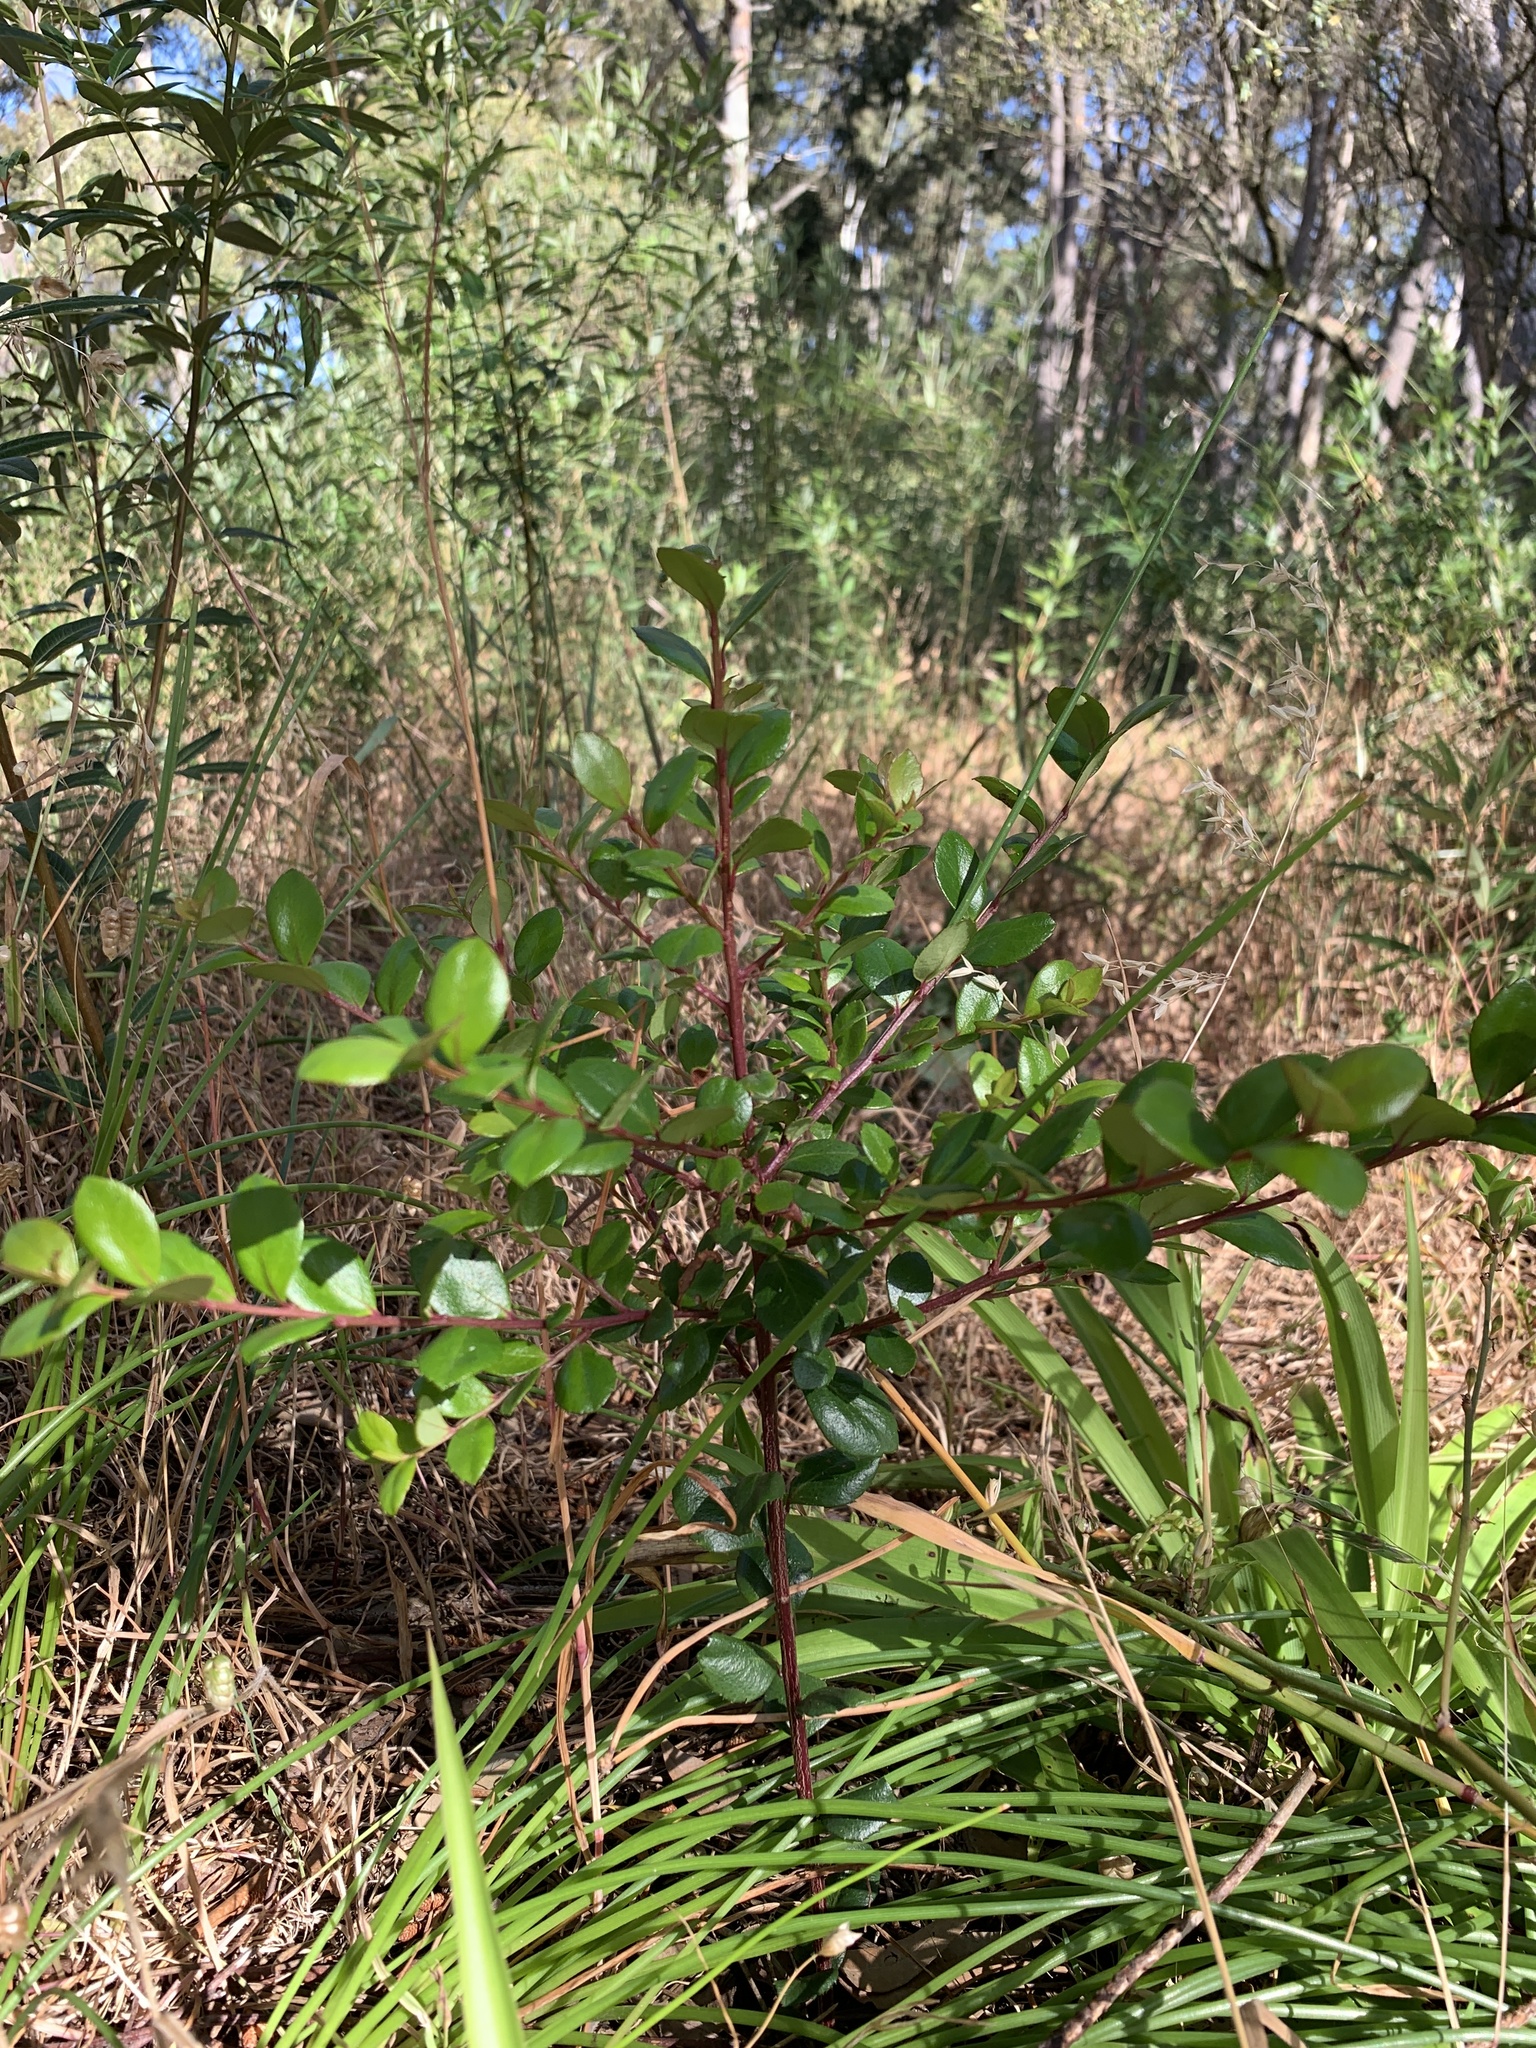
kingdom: Plantae
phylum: Tracheophyta
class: Magnoliopsida
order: Ericales
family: Primulaceae
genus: Myrsine
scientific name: Myrsine africana
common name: African-boxwood
